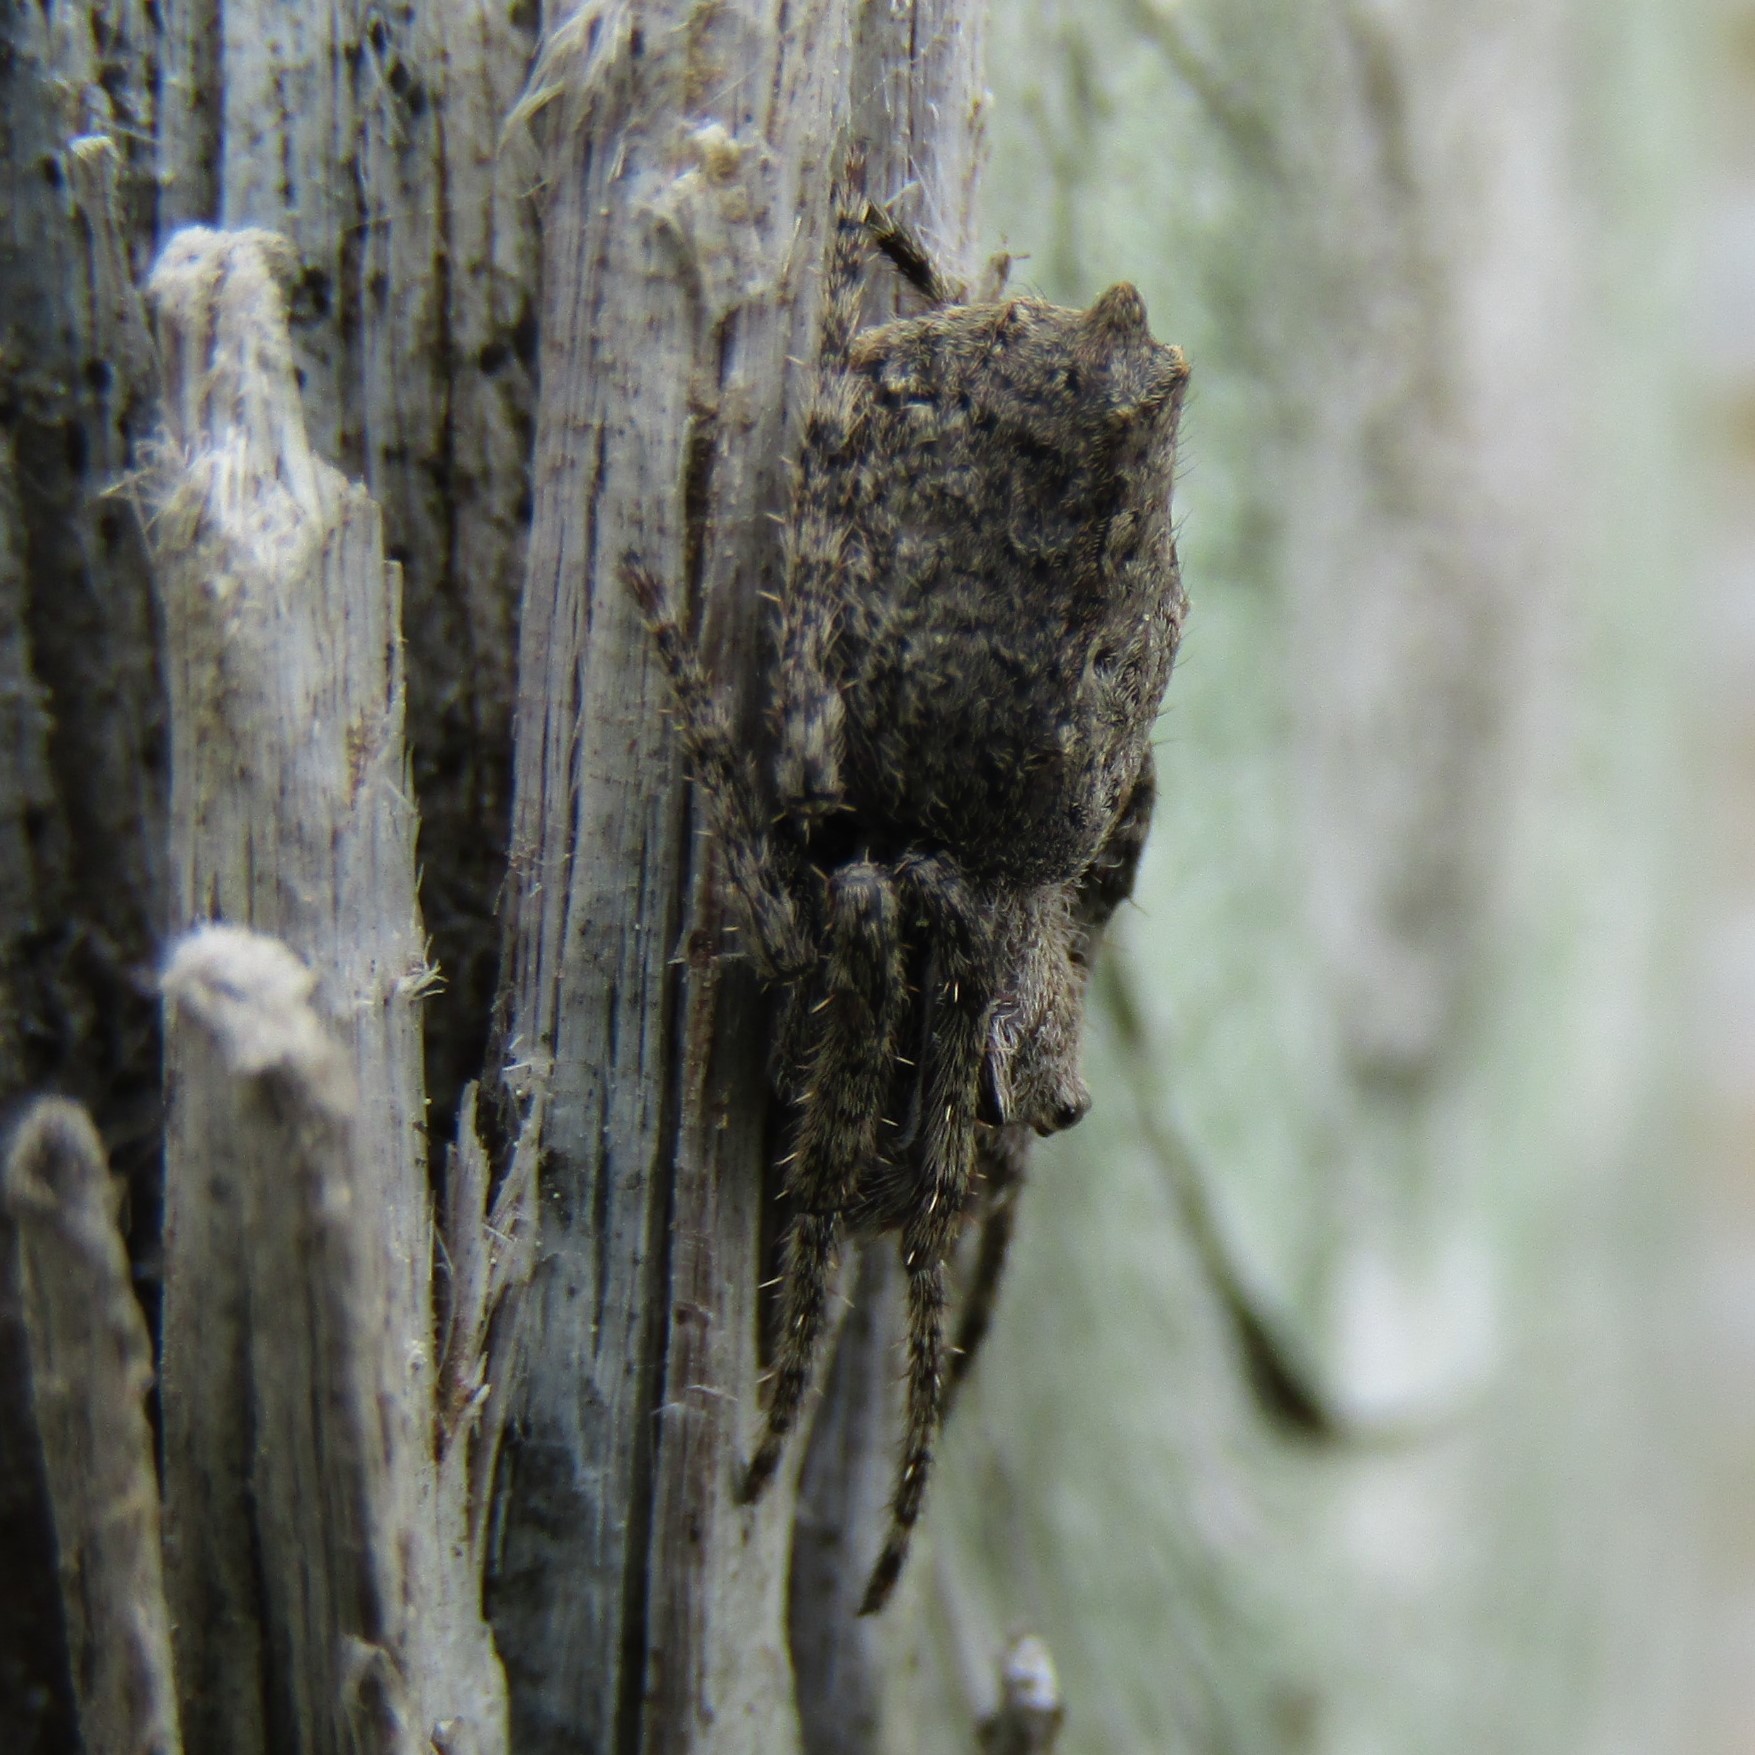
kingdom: Animalia
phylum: Arthropoda
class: Arachnida
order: Araneae
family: Araneidae
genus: Eriophora
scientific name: Eriophora pustulosa
